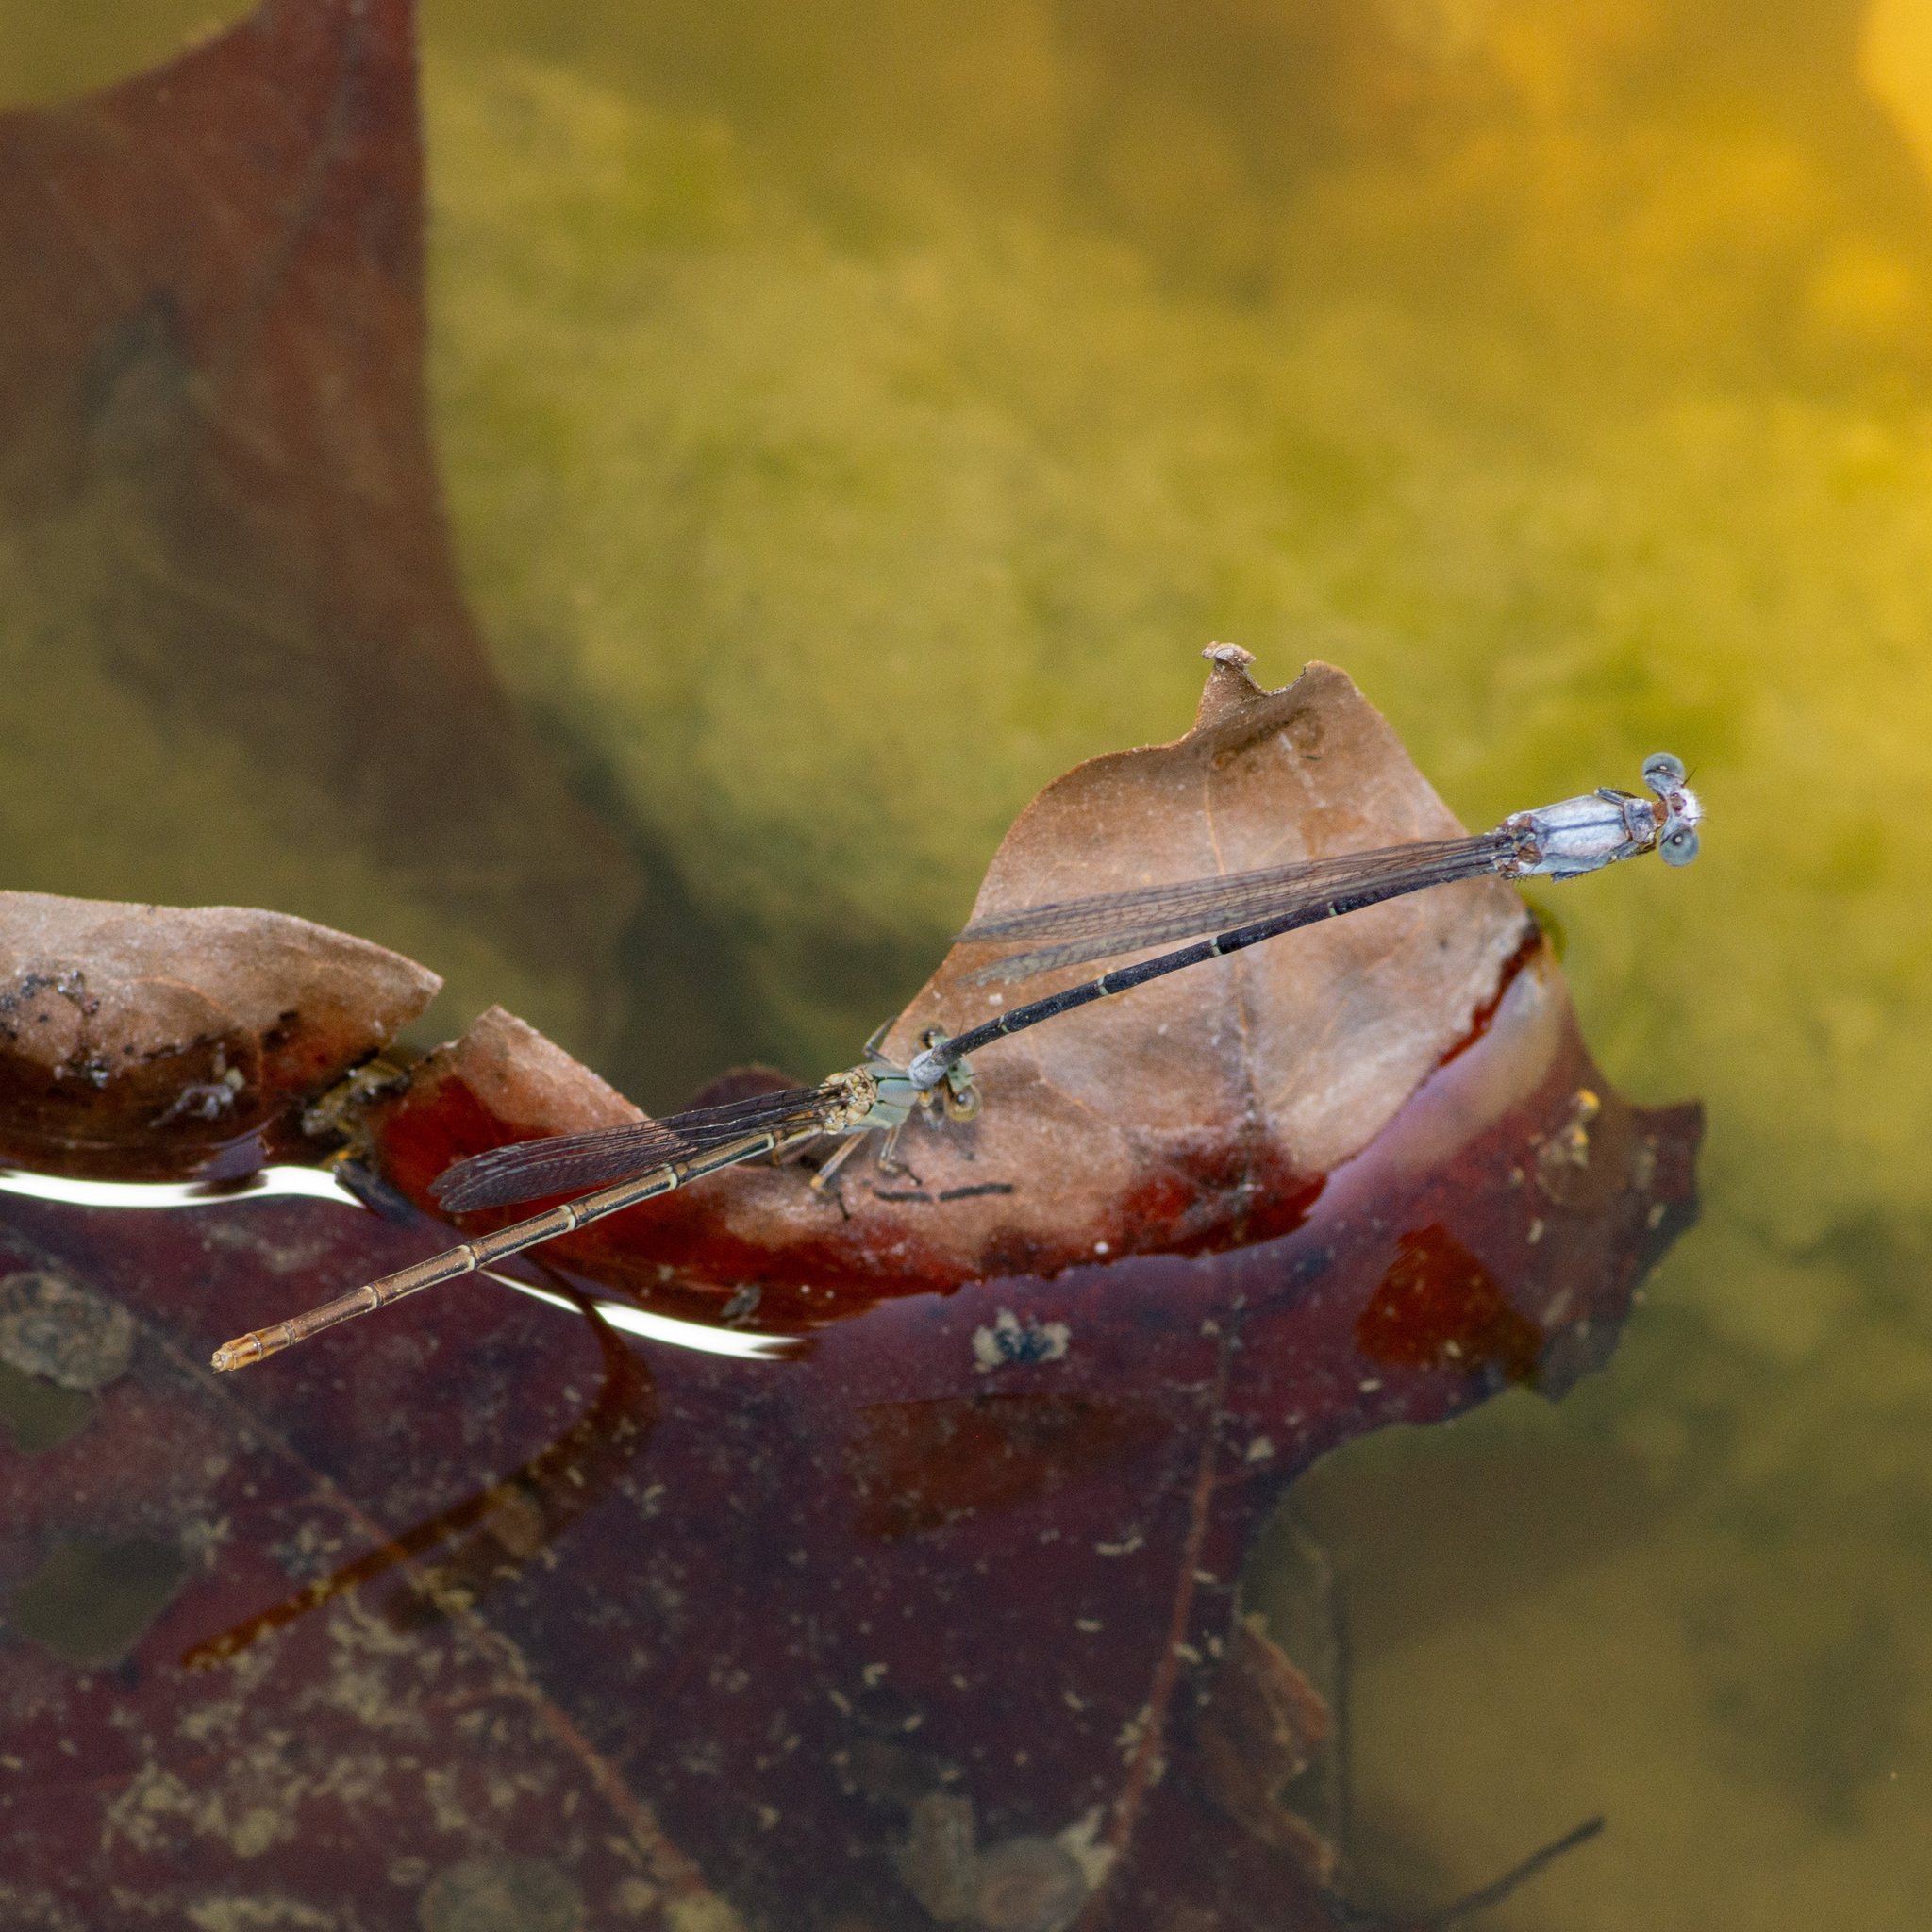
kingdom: Animalia
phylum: Arthropoda
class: Insecta
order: Odonata
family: Coenagrionidae
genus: Argia
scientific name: Argia moesta
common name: Powdered dancer
